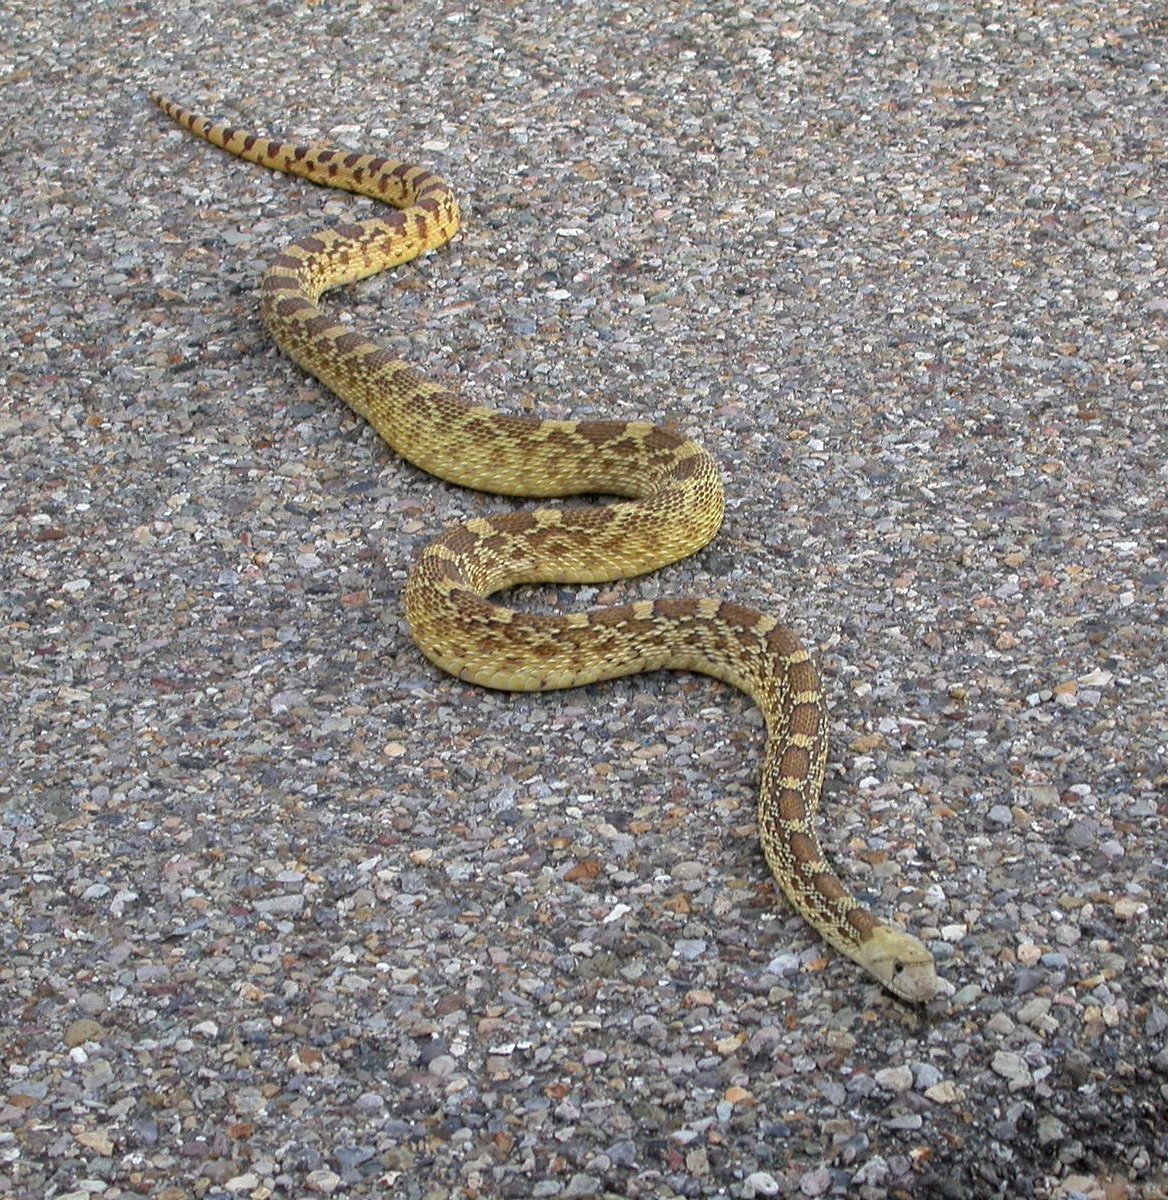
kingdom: Animalia
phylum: Chordata
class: Squamata
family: Colubridae
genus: Pituophis
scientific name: Pituophis catenifer
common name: Gopher snake
